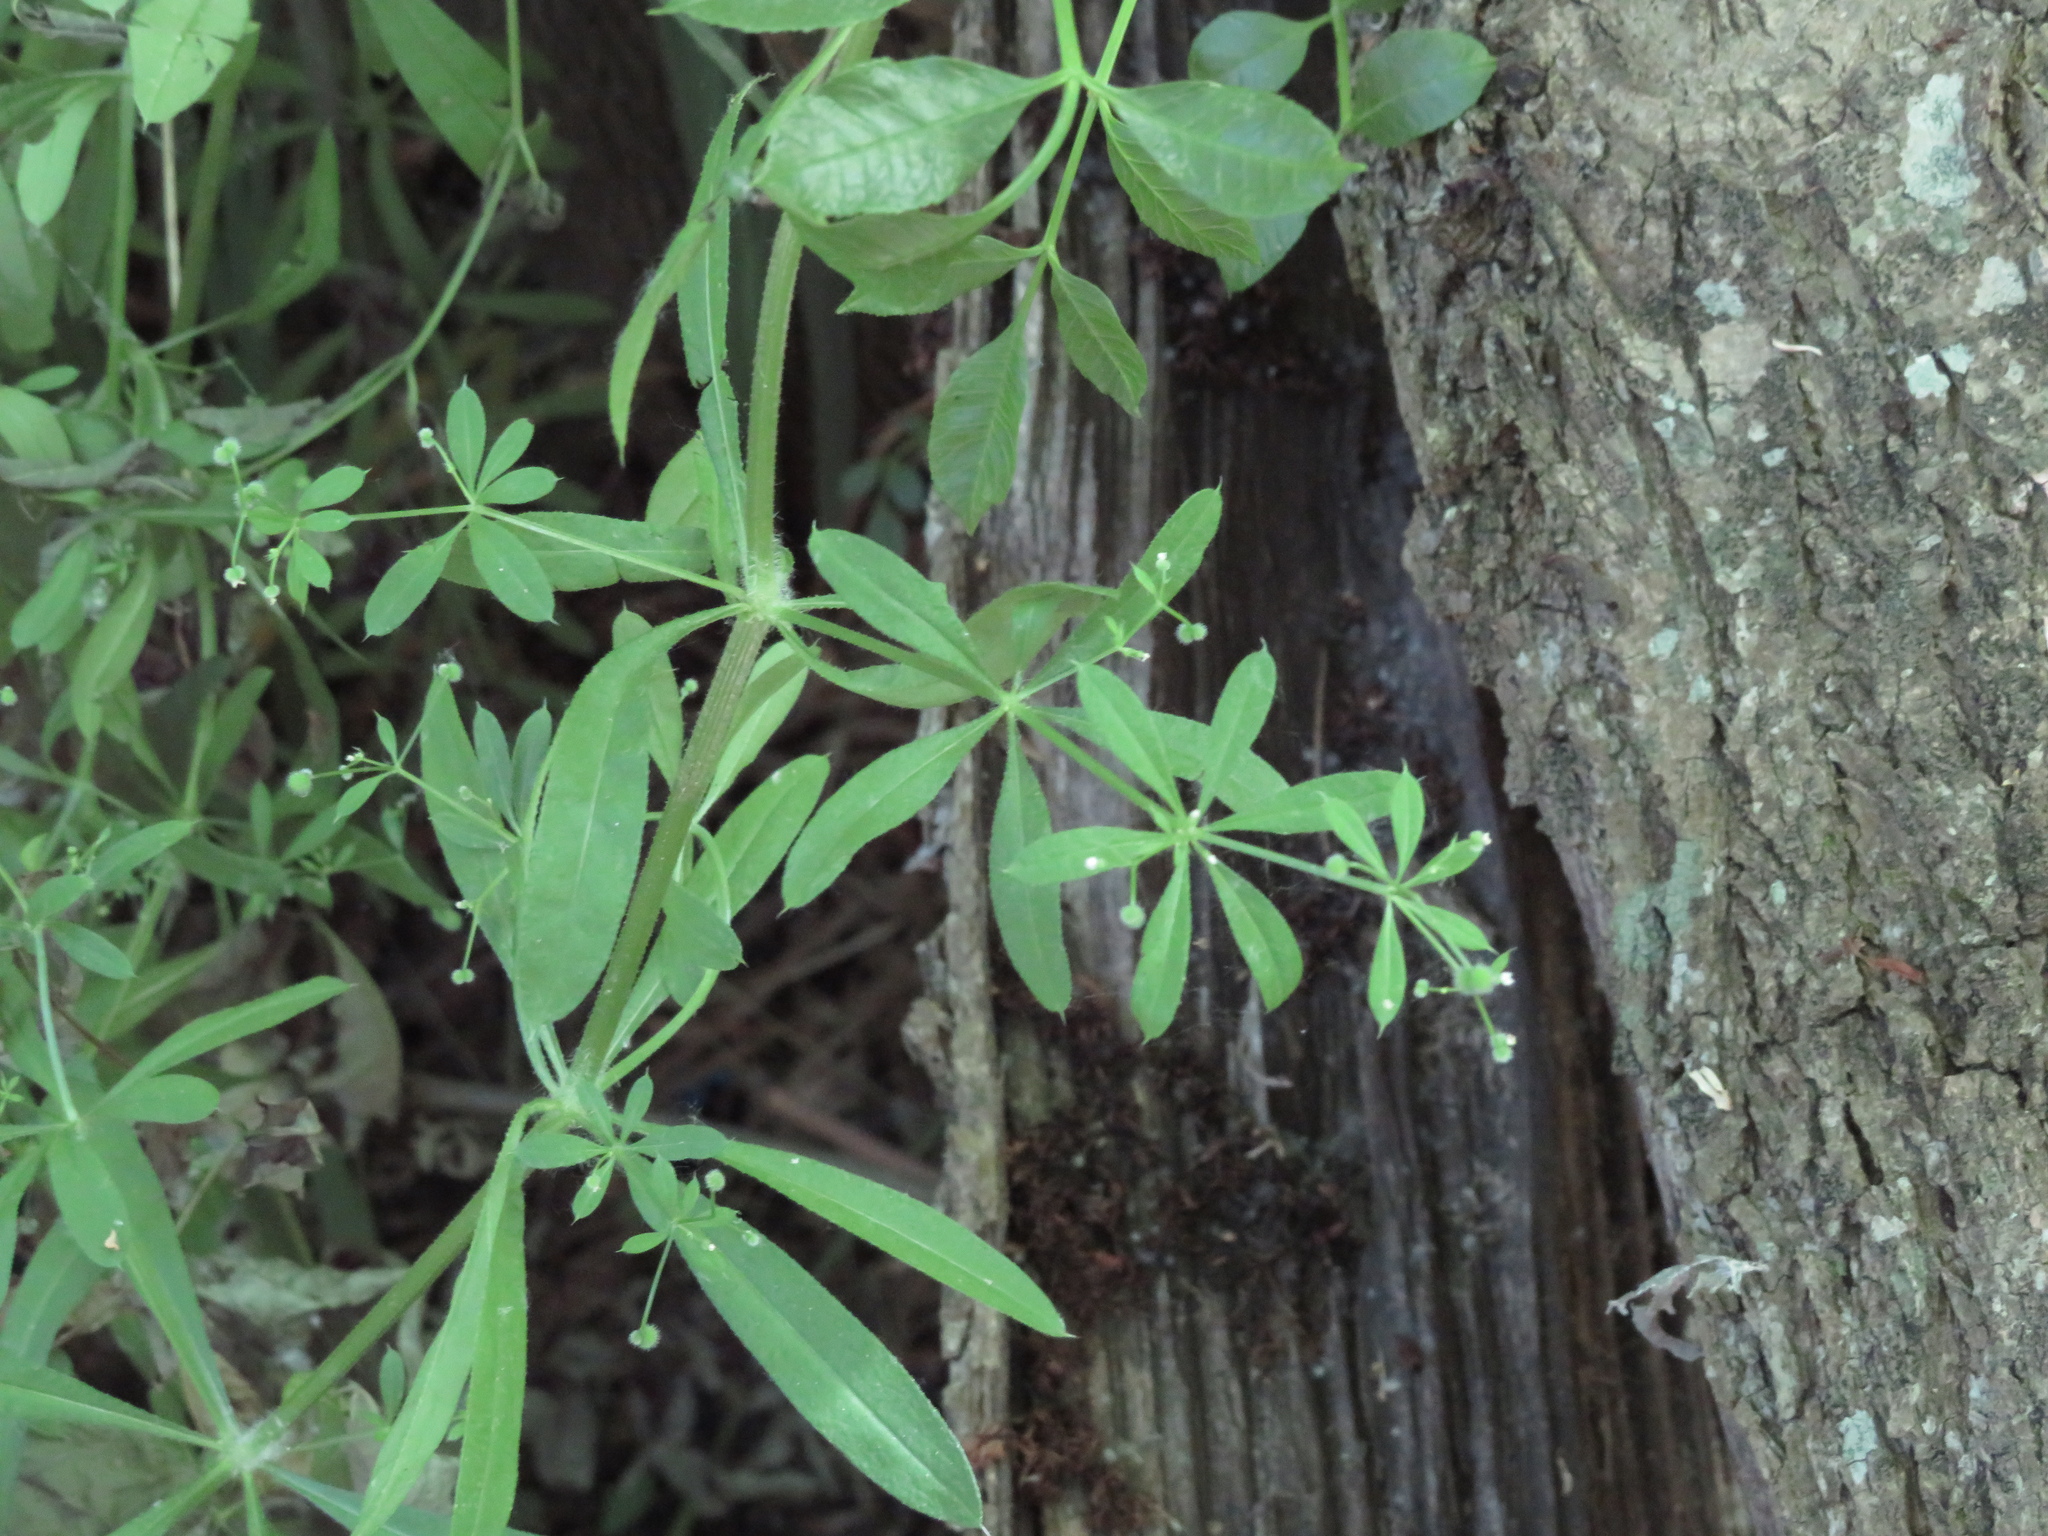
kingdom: Plantae
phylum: Tracheophyta
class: Magnoliopsida
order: Gentianales
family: Rubiaceae
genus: Galium
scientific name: Galium aparine
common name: Cleavers
